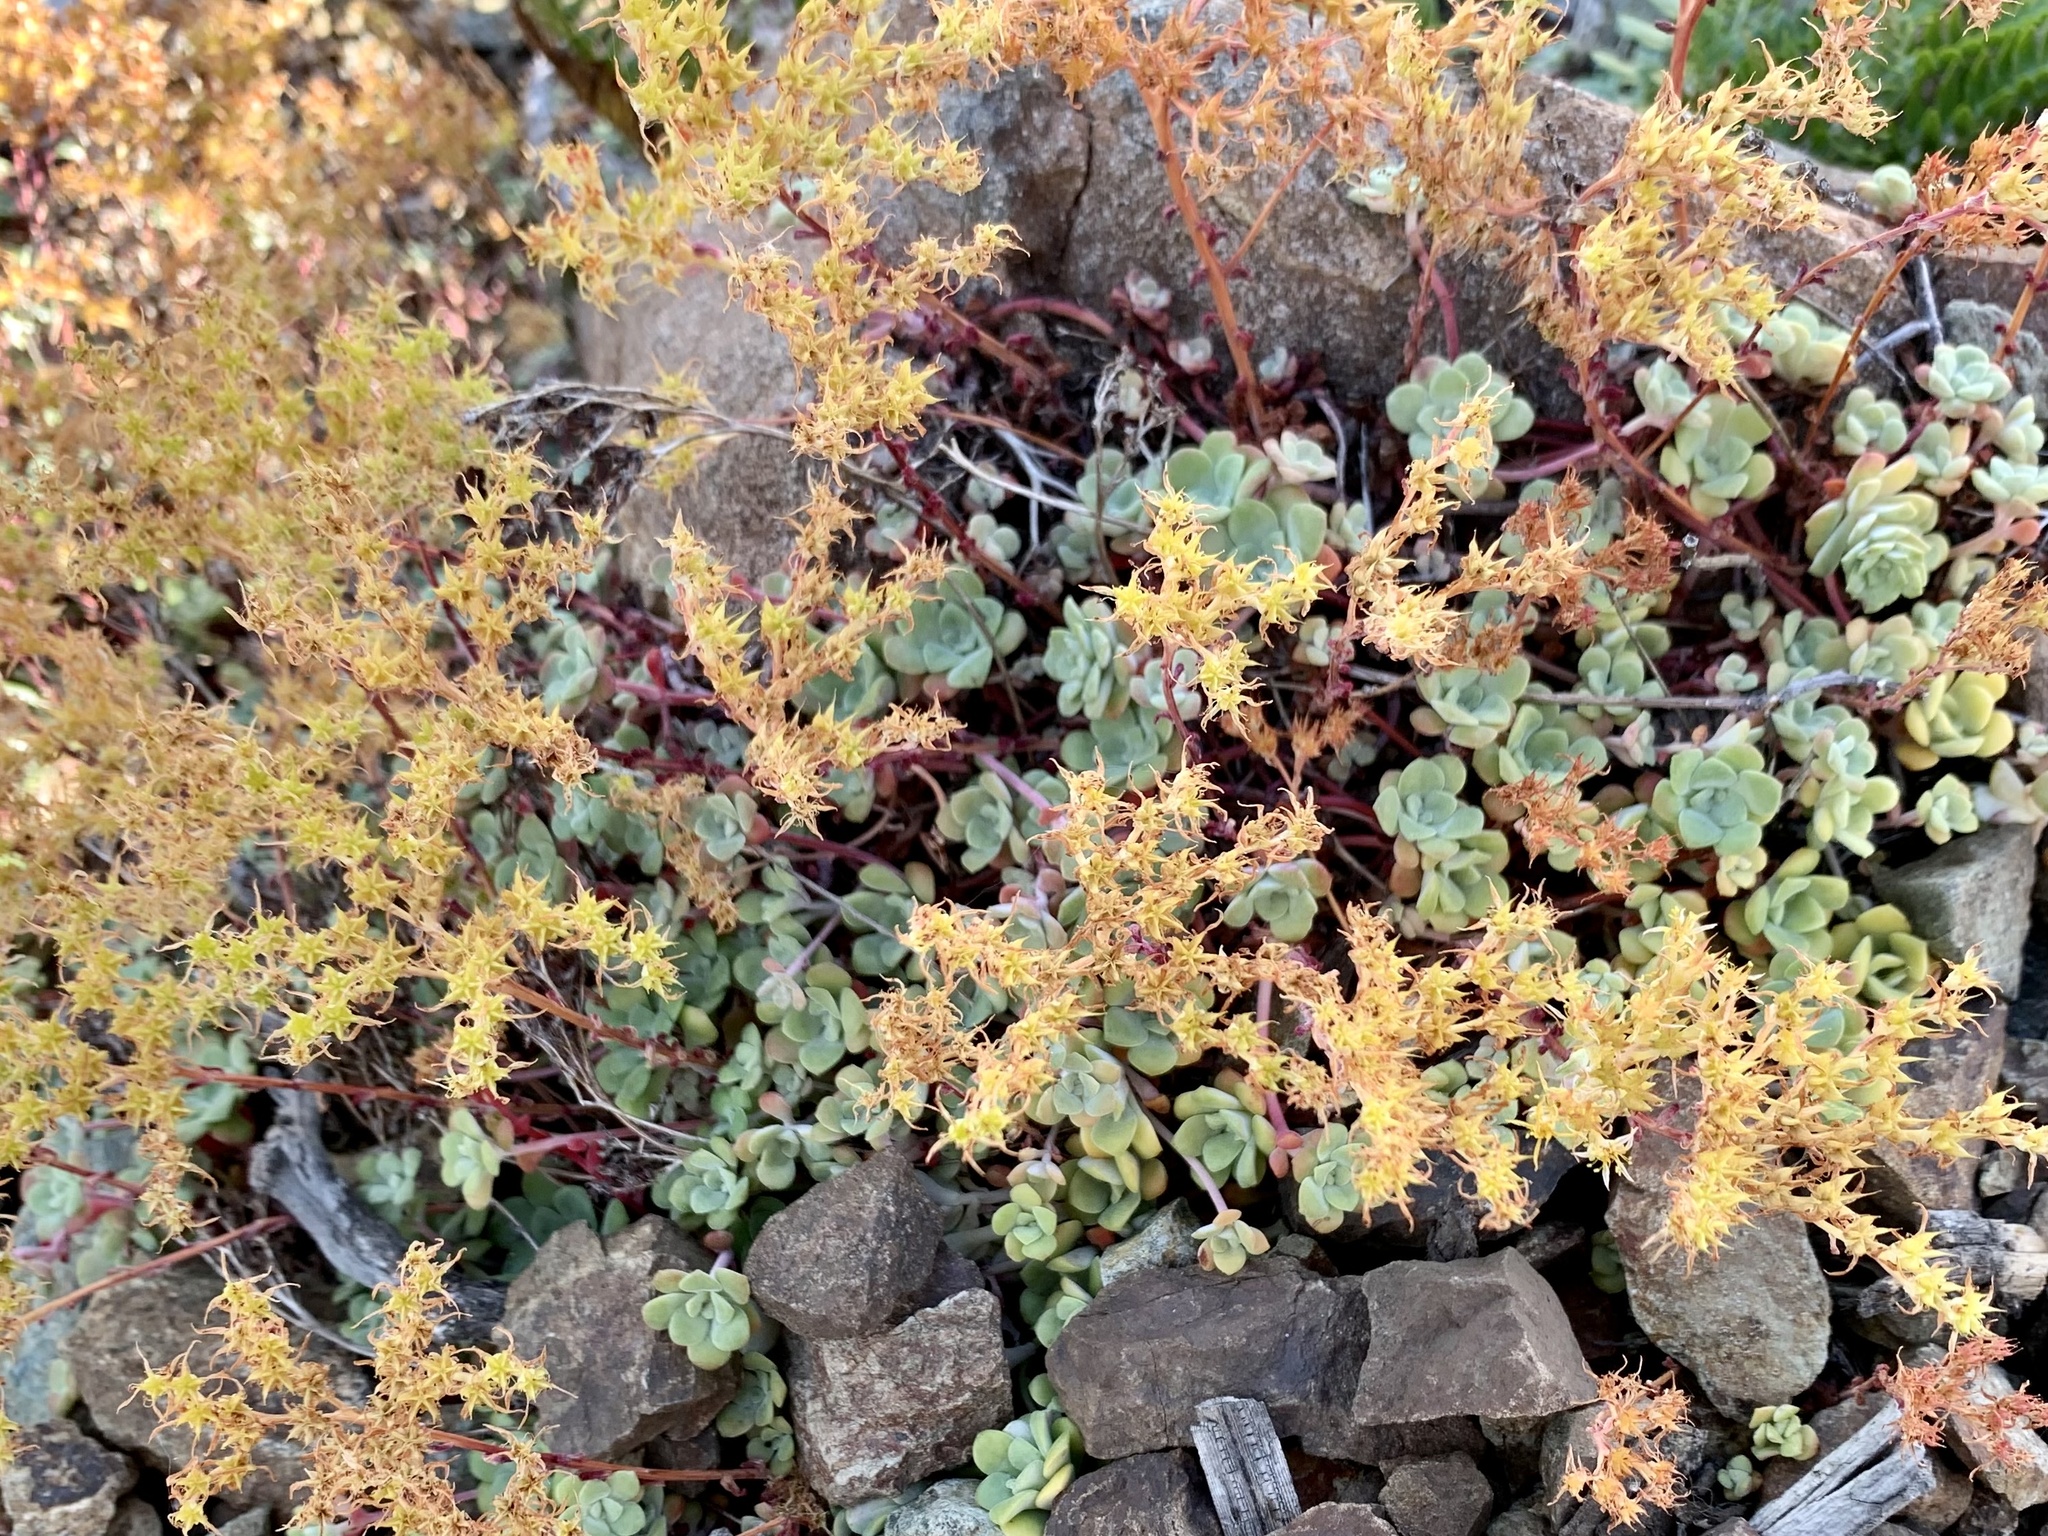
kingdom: Plantae
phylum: Tracheophyta
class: Magnoliopsida
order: Saxifragales
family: Crassulaceae
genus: Sedum
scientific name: Sedum spathulifolium
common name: Colorado stonecrop
